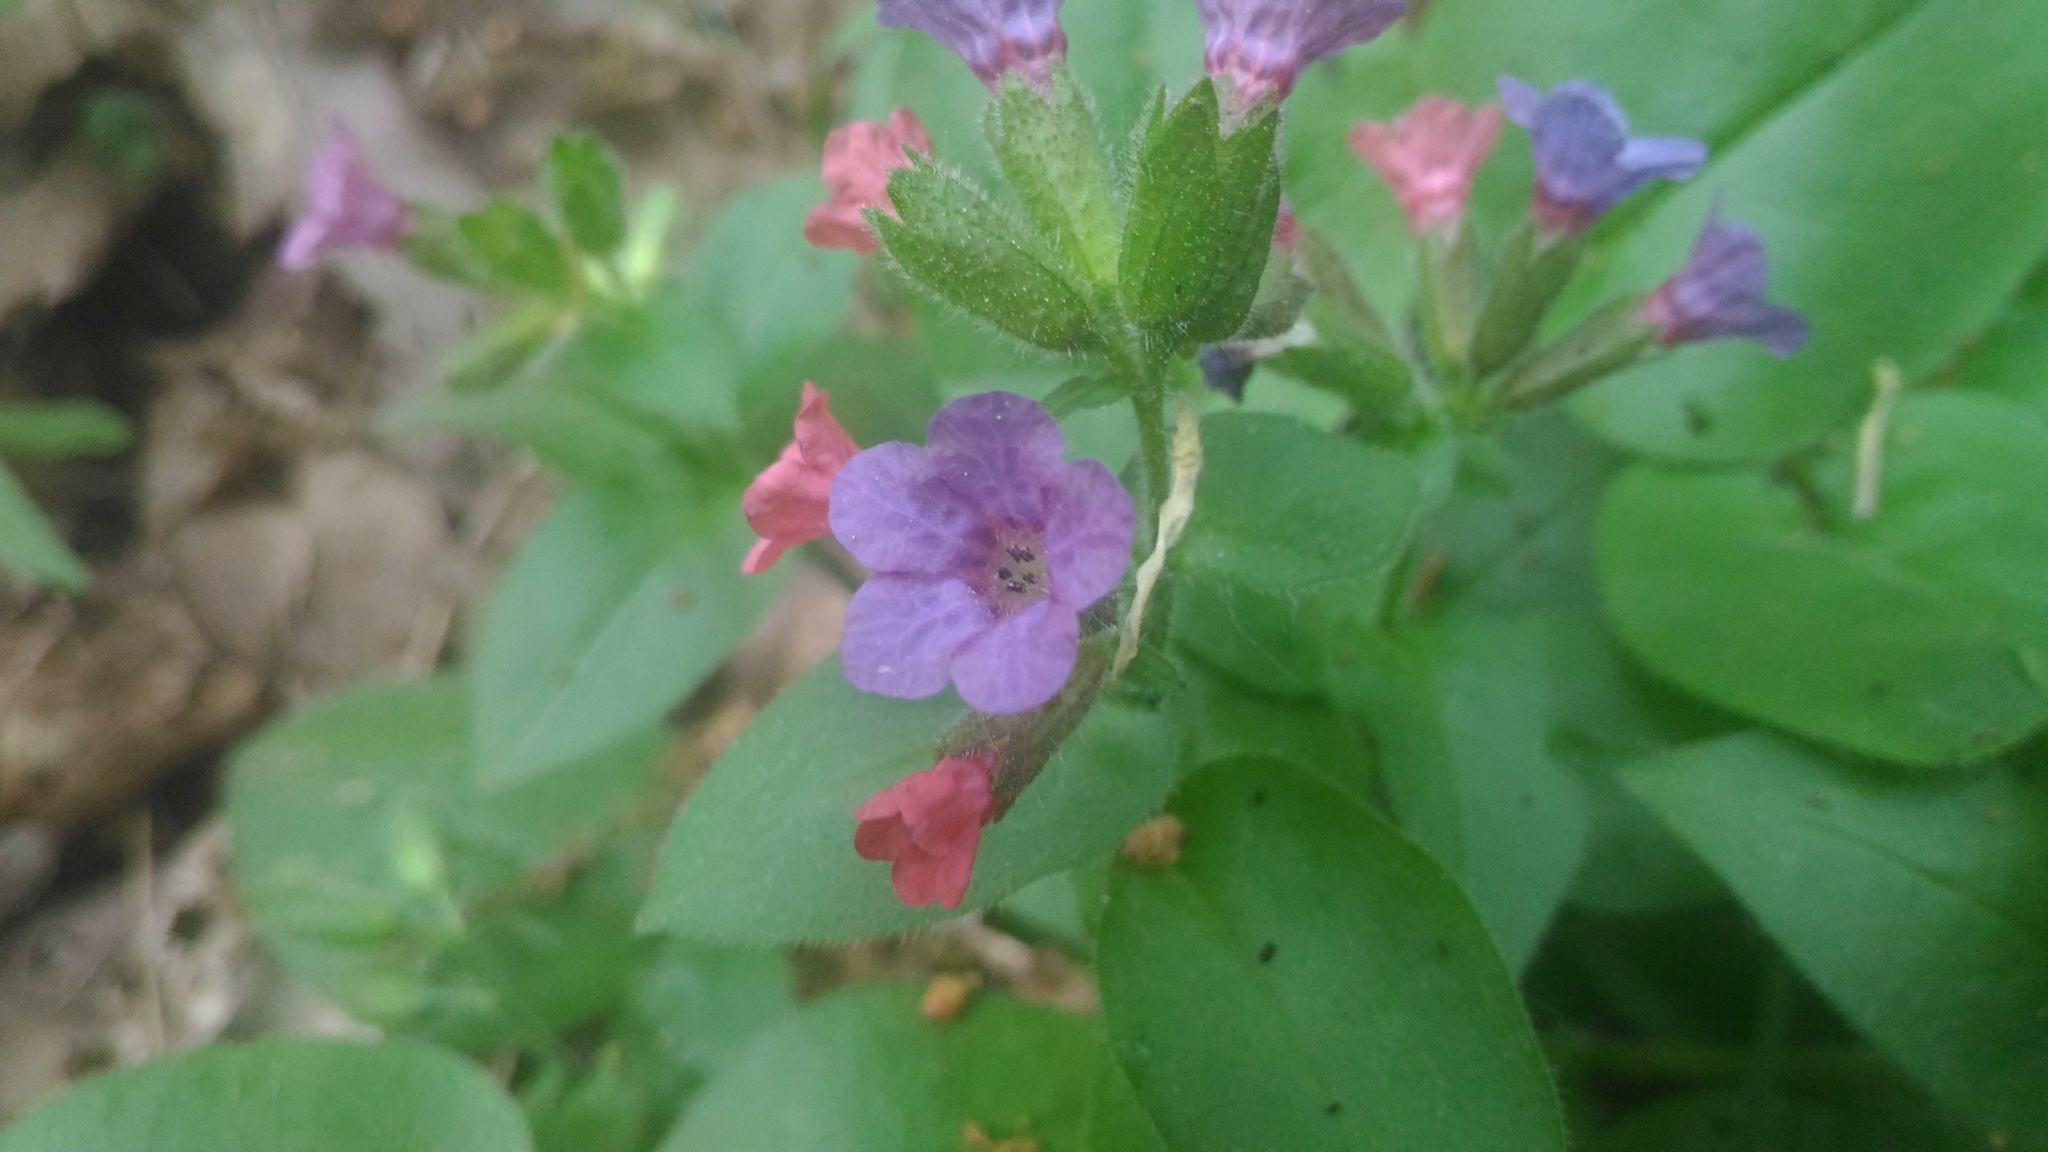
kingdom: Plantae
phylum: Tracheophyta
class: Magnoliopsida
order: Boraginales
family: Boraginaceae
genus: Pulmonaria
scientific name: Pulmonaria obscura
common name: Suffolk lungwort
